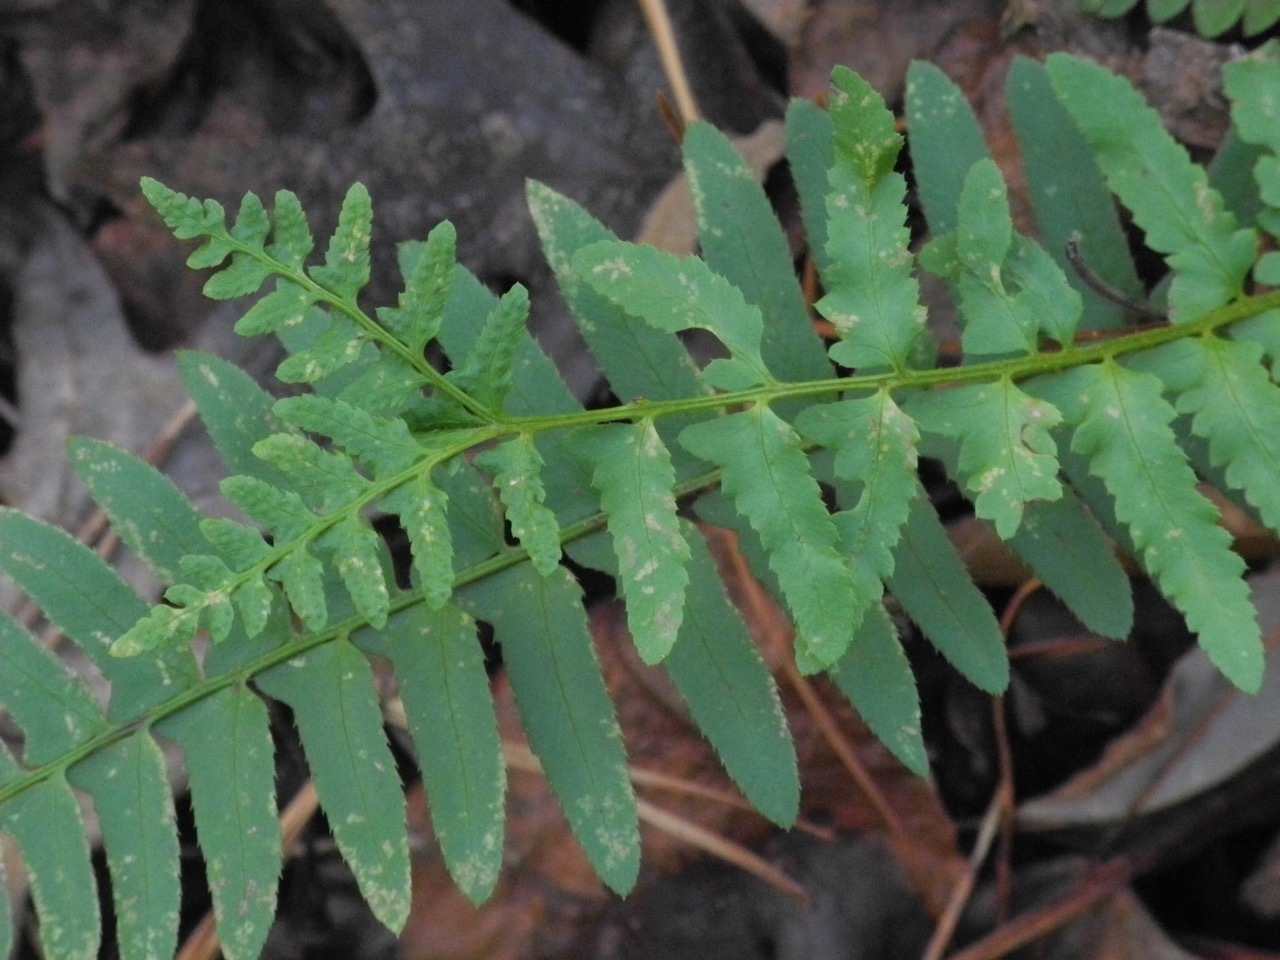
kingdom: Plantae
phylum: Tracheophyta
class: Polypodiopsida
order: Polypodiales
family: Dryopteridaceae
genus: Polystichum
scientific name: Polystichum acrostichoides
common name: Christmas fern
